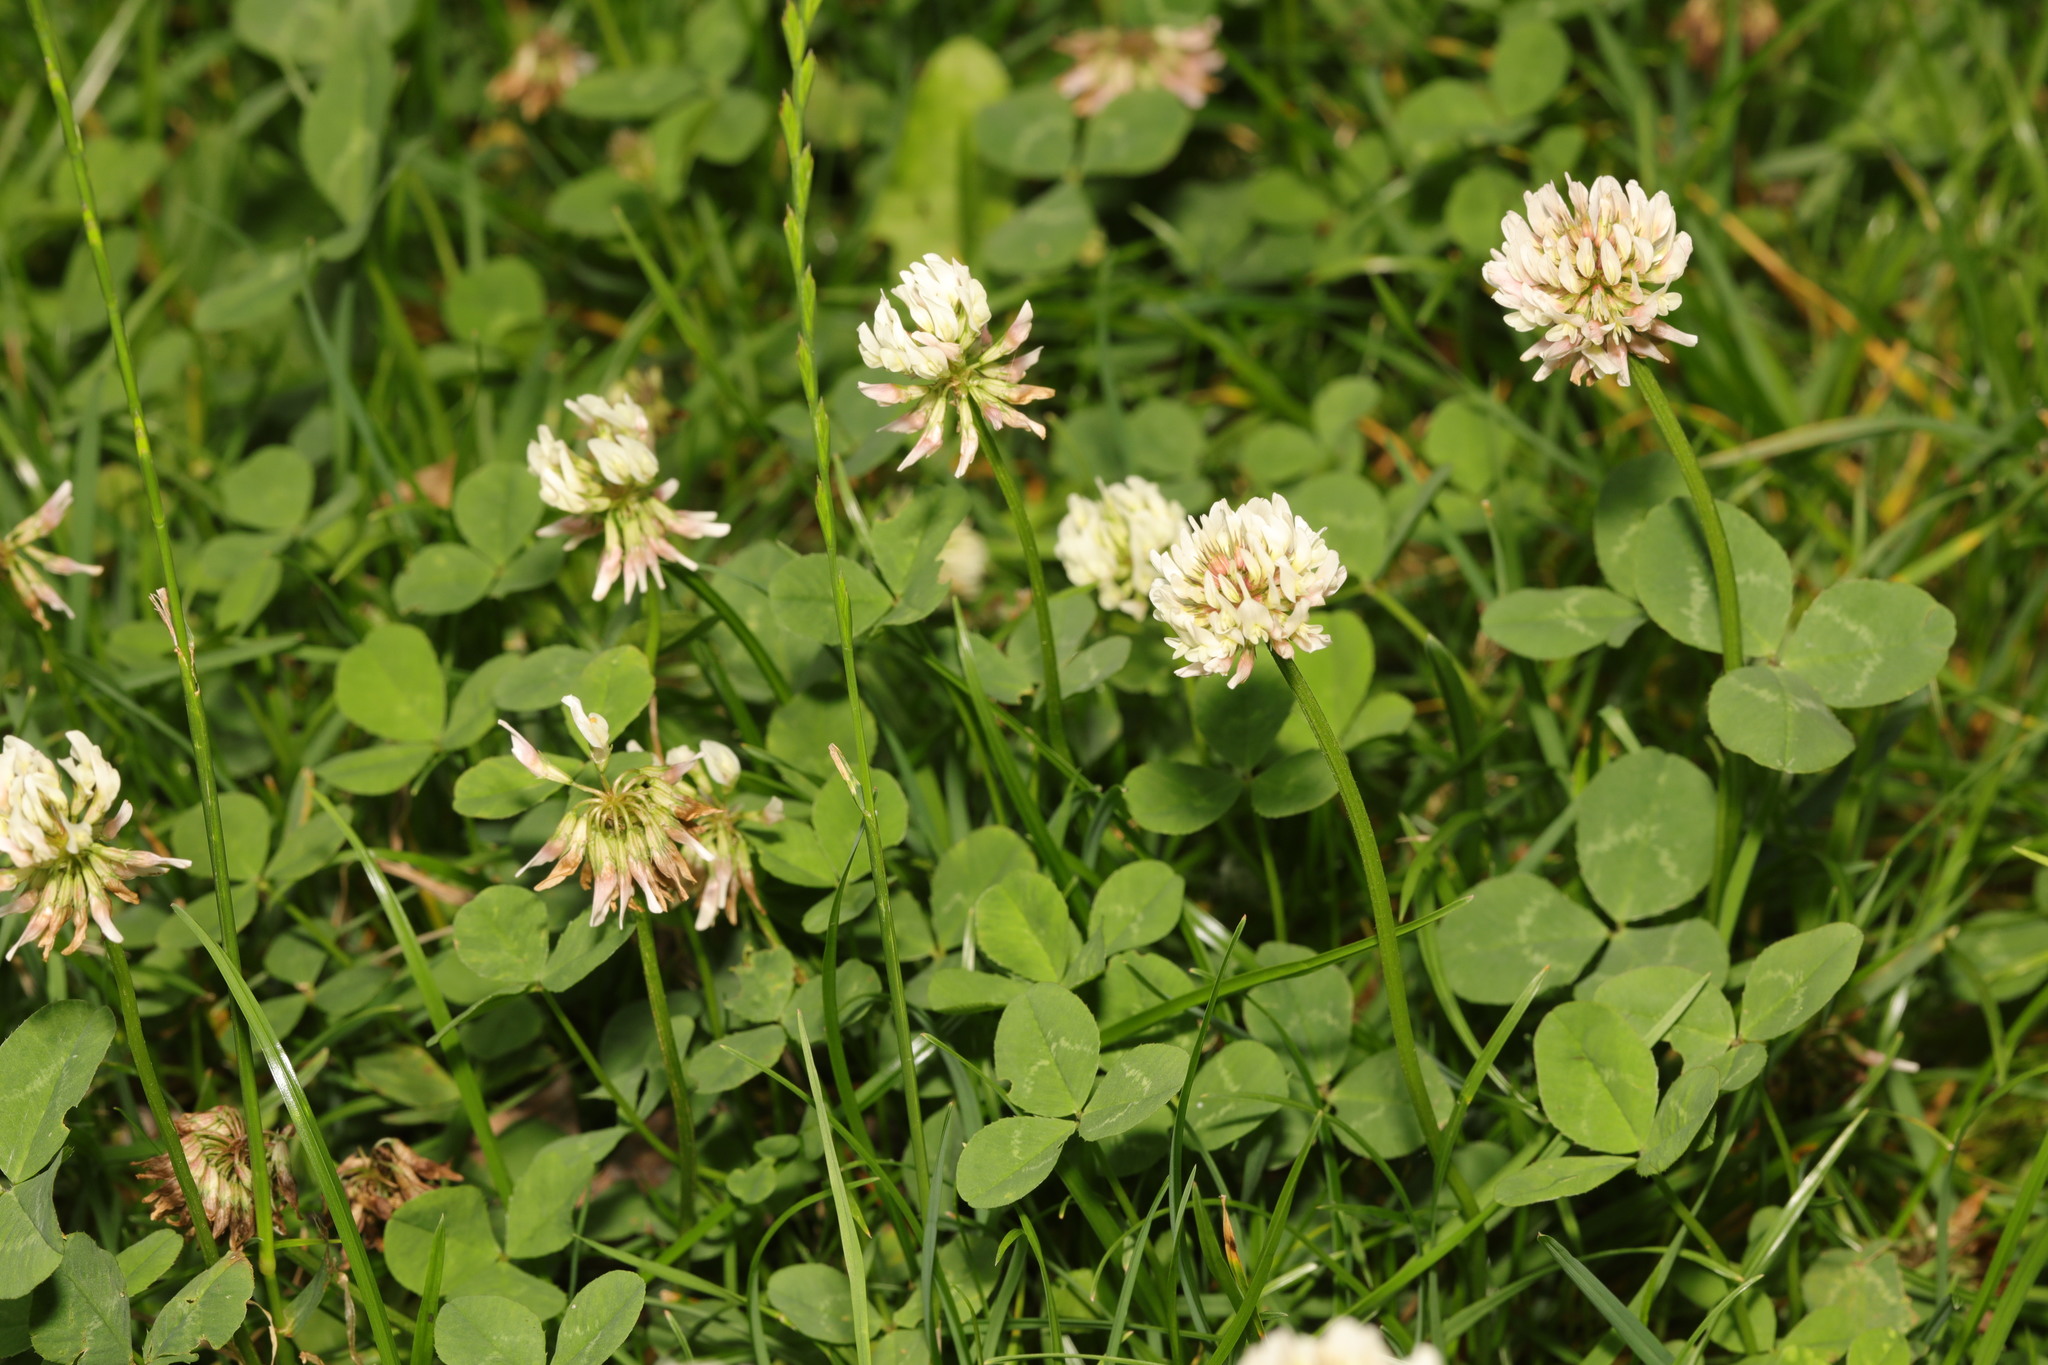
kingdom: Plantae
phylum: Tracheophyta
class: Magnoliopsida
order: Fabales
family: Fabaceae
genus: Trifolium
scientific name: Trifolium repens
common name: White clover
